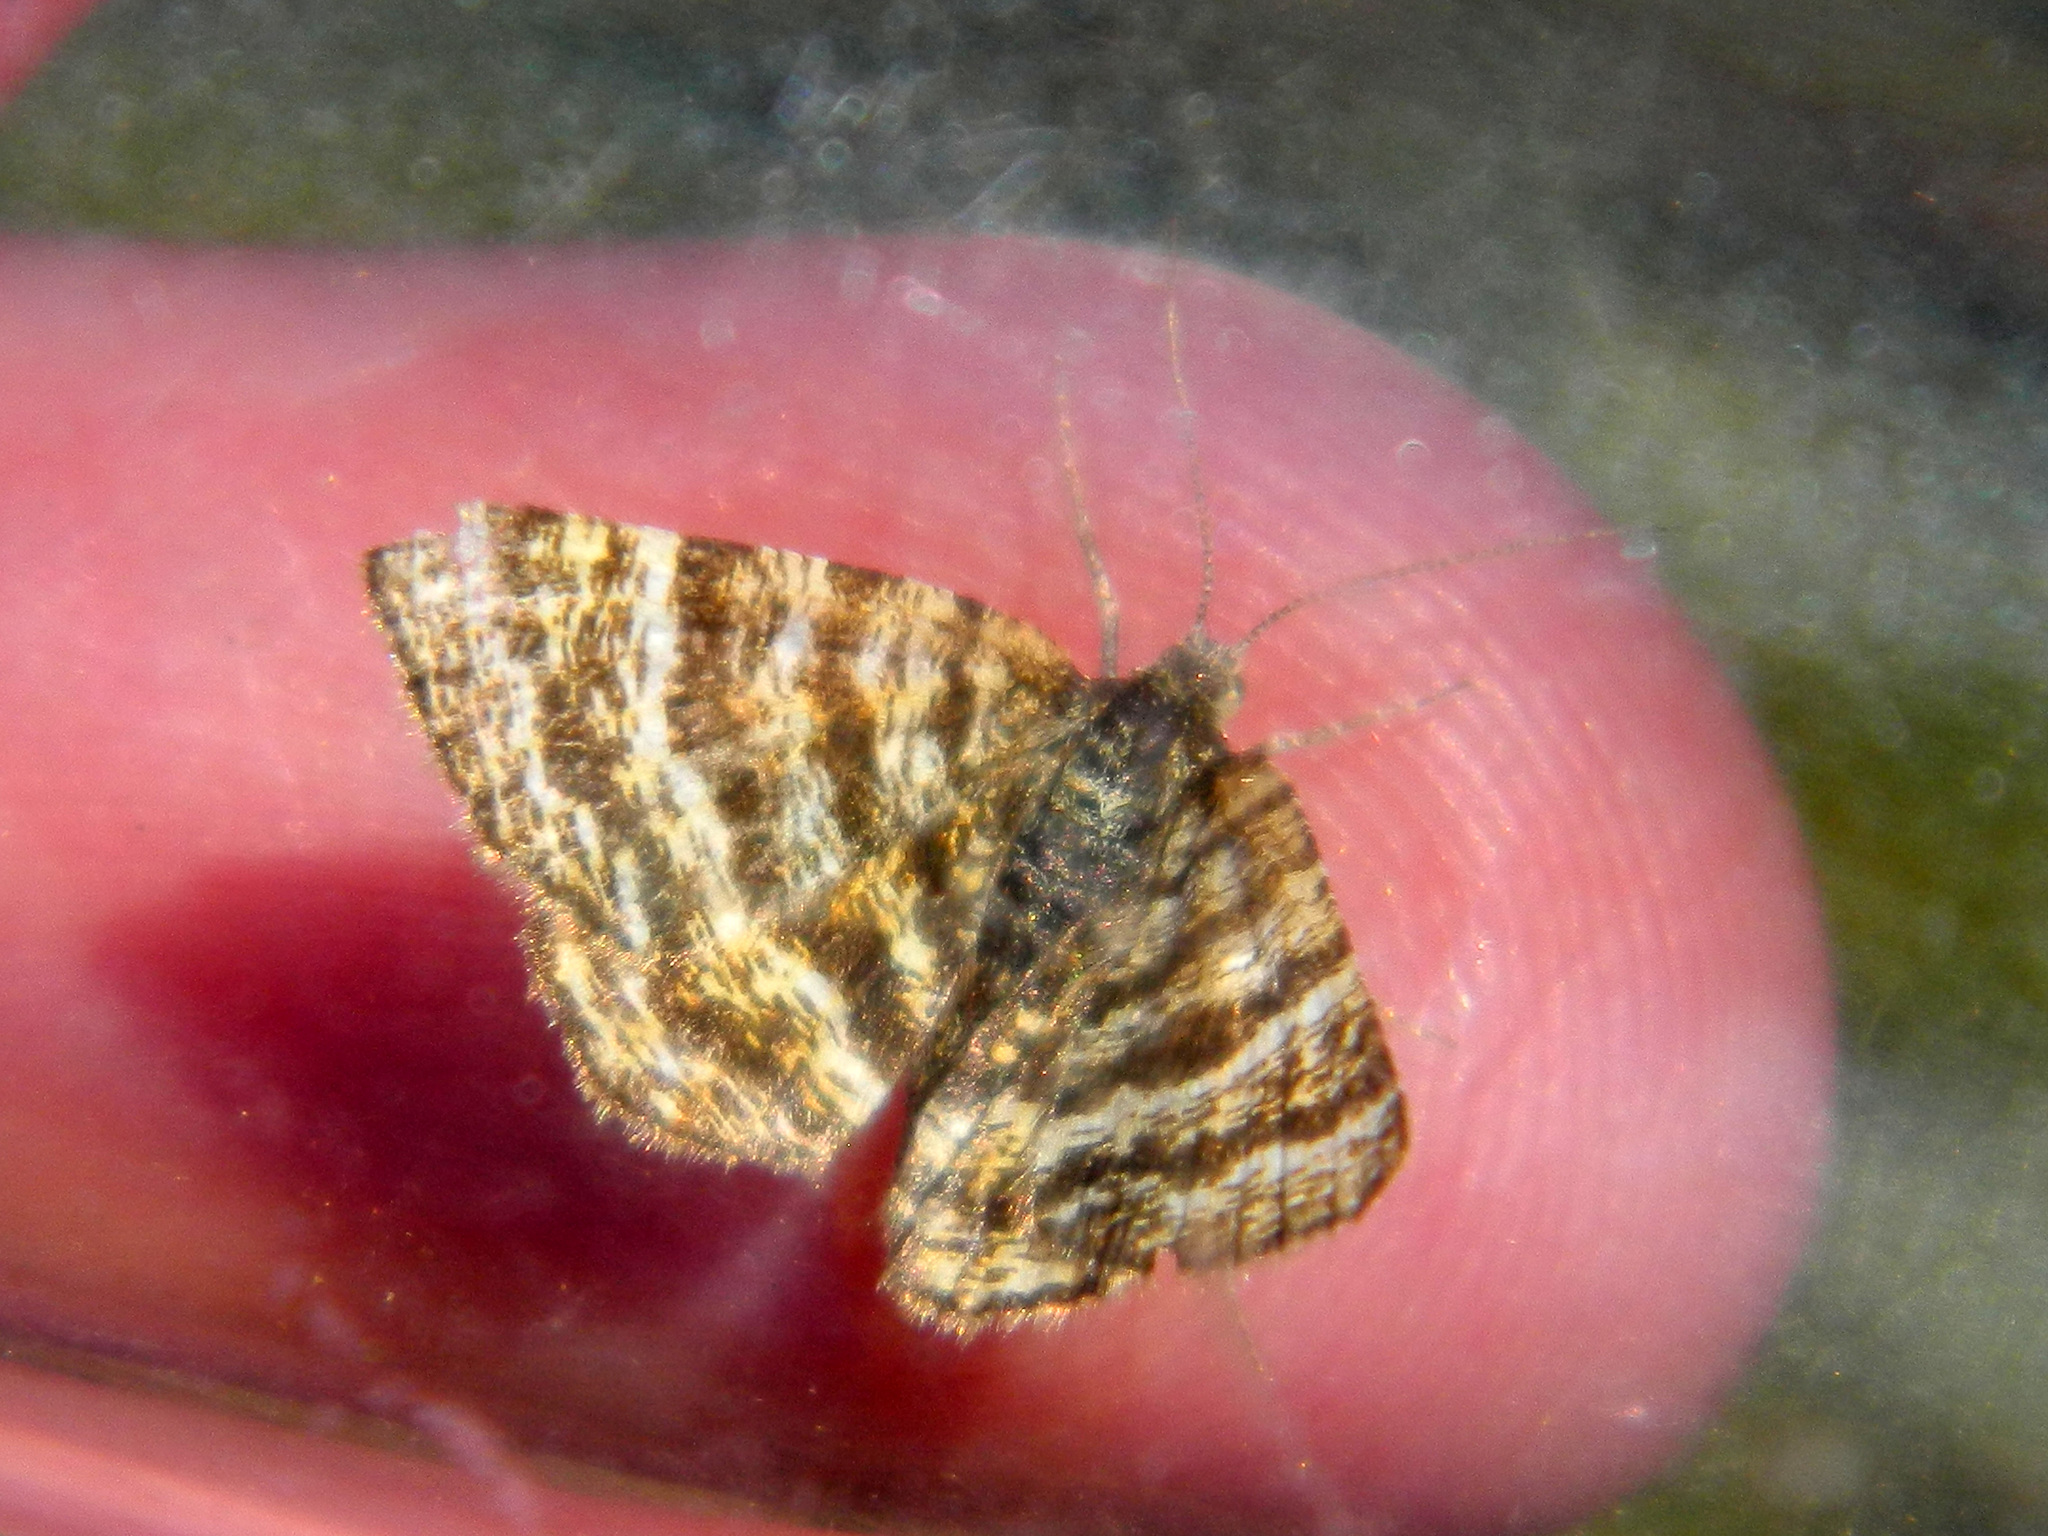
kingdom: Animalia
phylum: Arthropoda
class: Insecta
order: Lepidoptera
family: Geometridae
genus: Macaria
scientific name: Macaria truncataria
